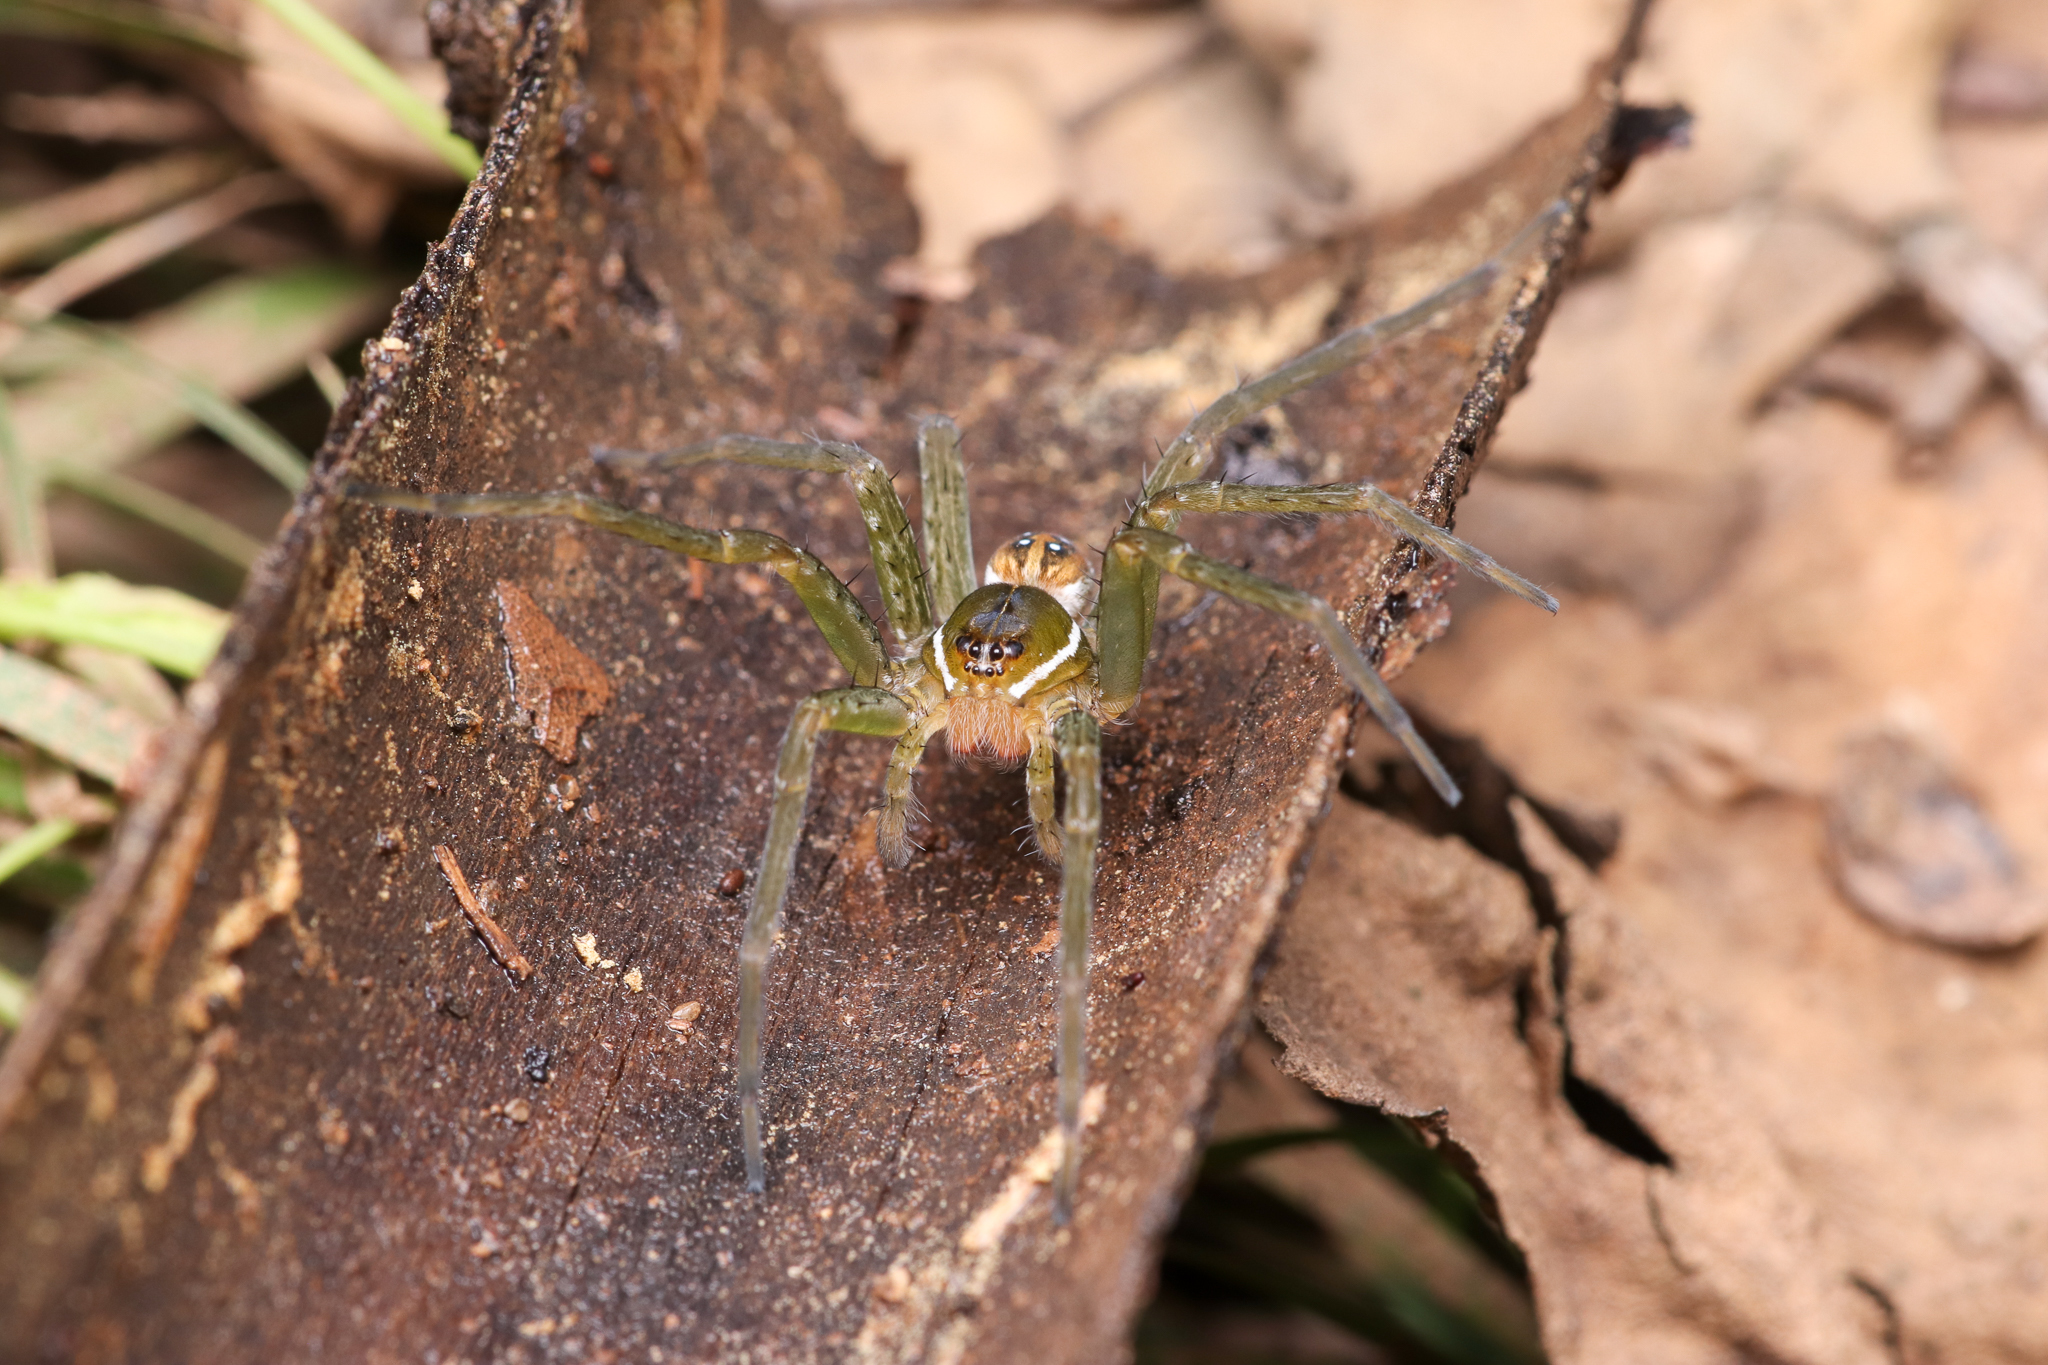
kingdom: Animalia
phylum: Arthropoda
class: Arachnida
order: Araneae
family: Pisauridae
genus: Dolomedes
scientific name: Dolomedes triton
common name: Six-spotted fishing spider
